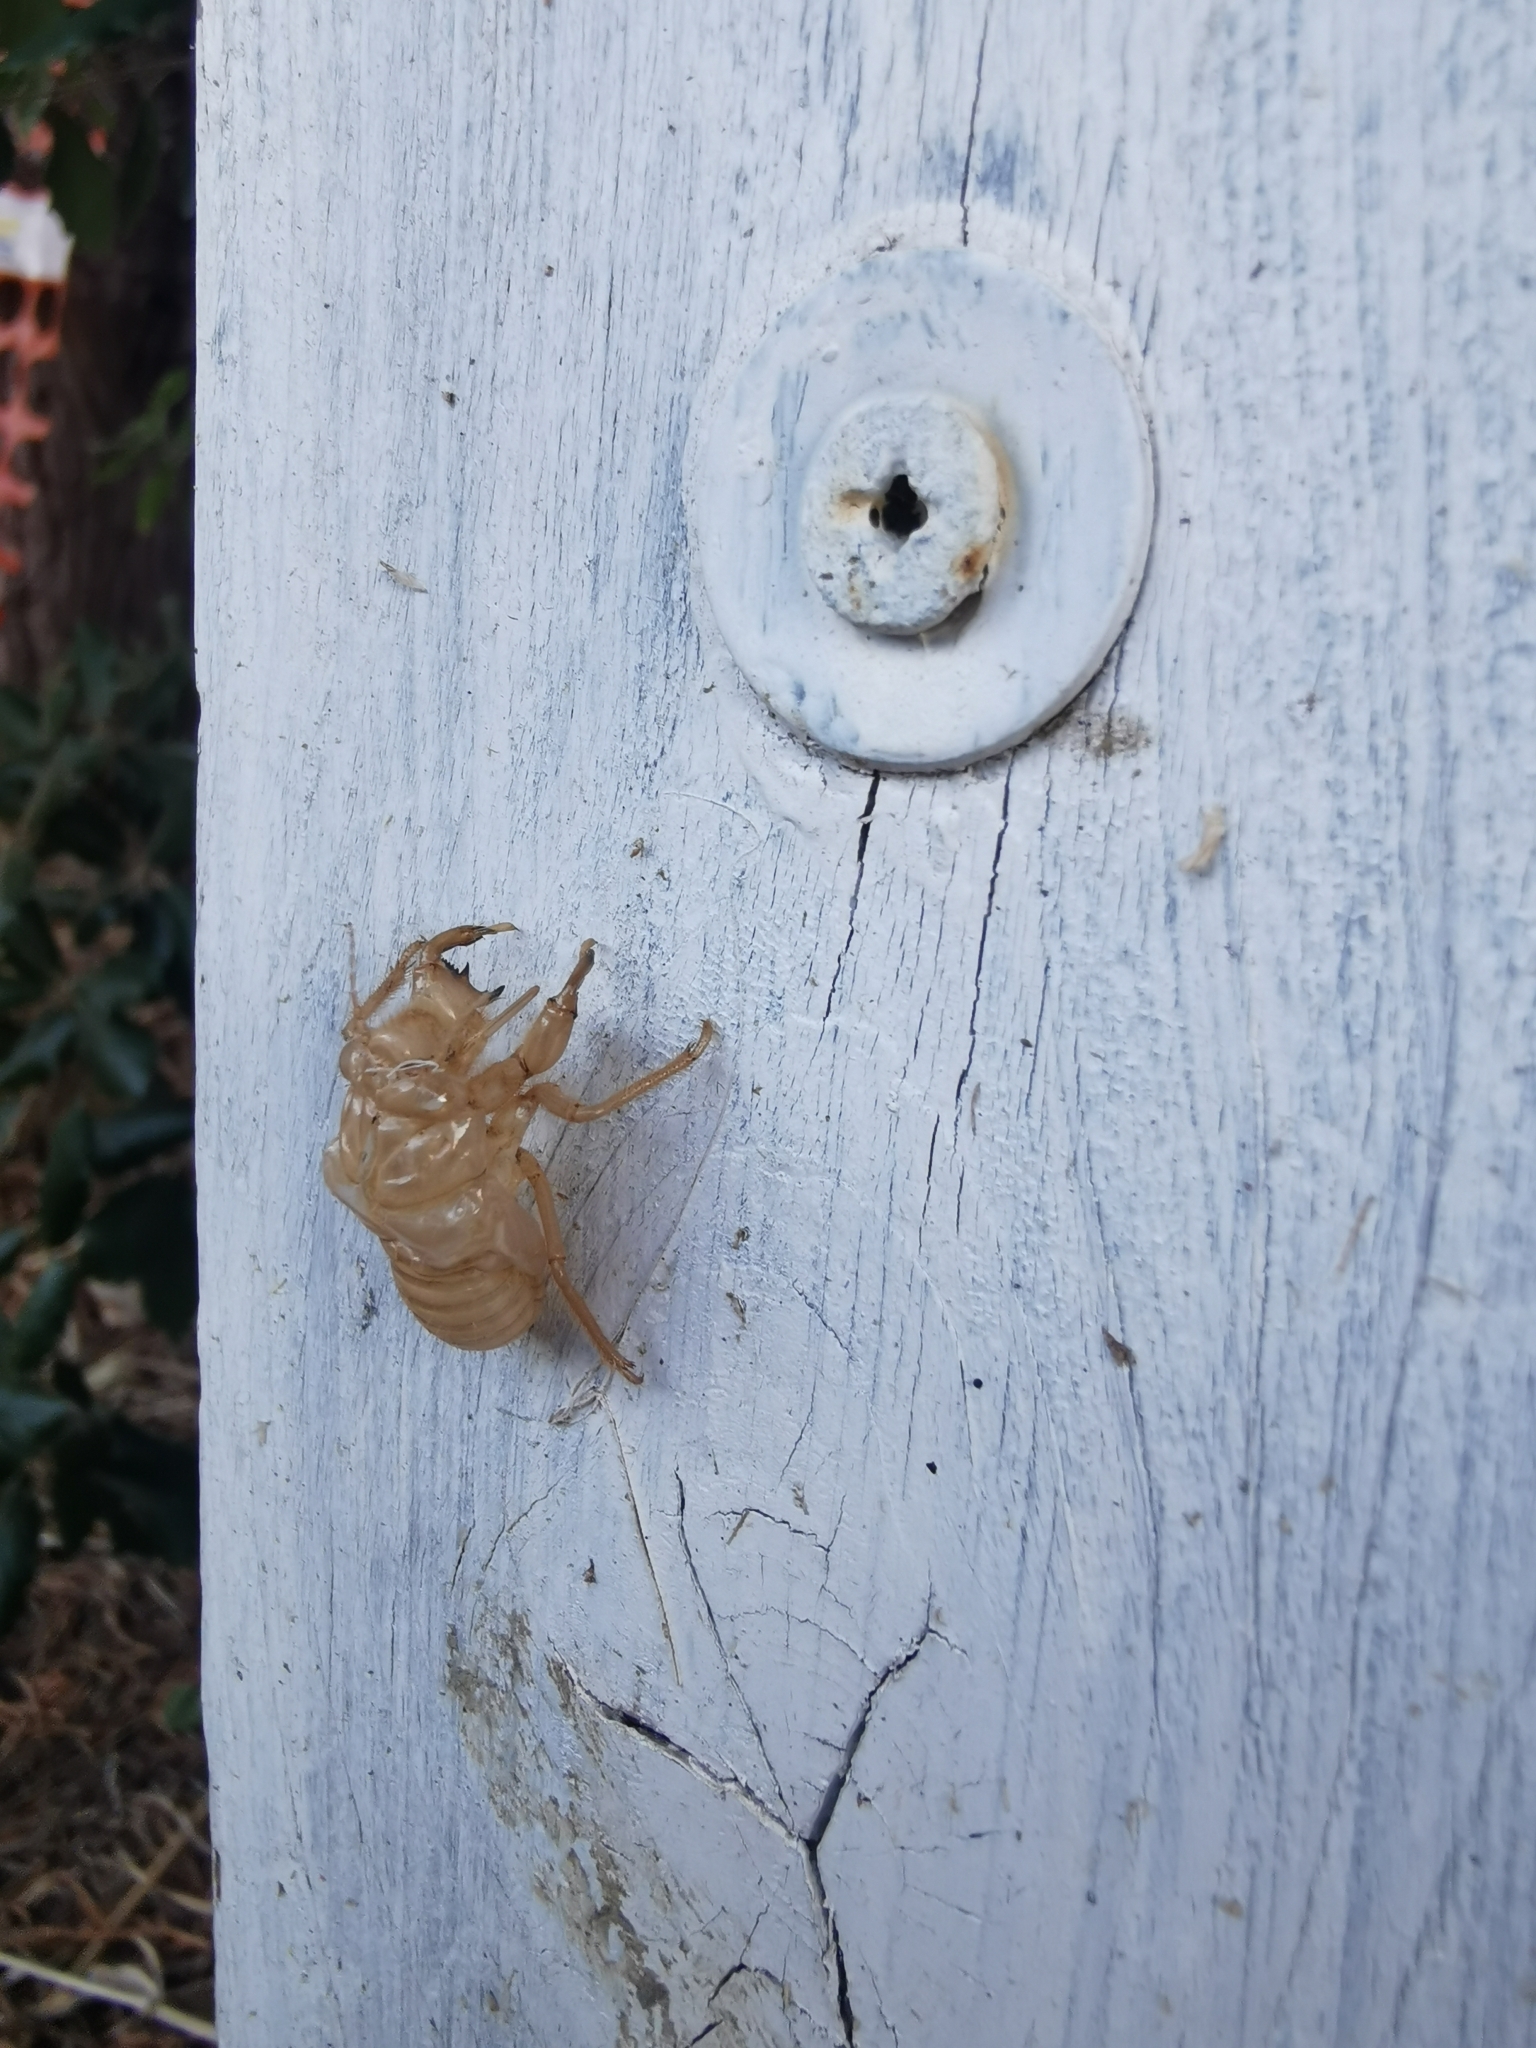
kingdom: Animalia
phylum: Arthropoda
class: Insecta
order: Hemiptera
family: Cicadidae
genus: Cicada
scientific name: Cicada orni
